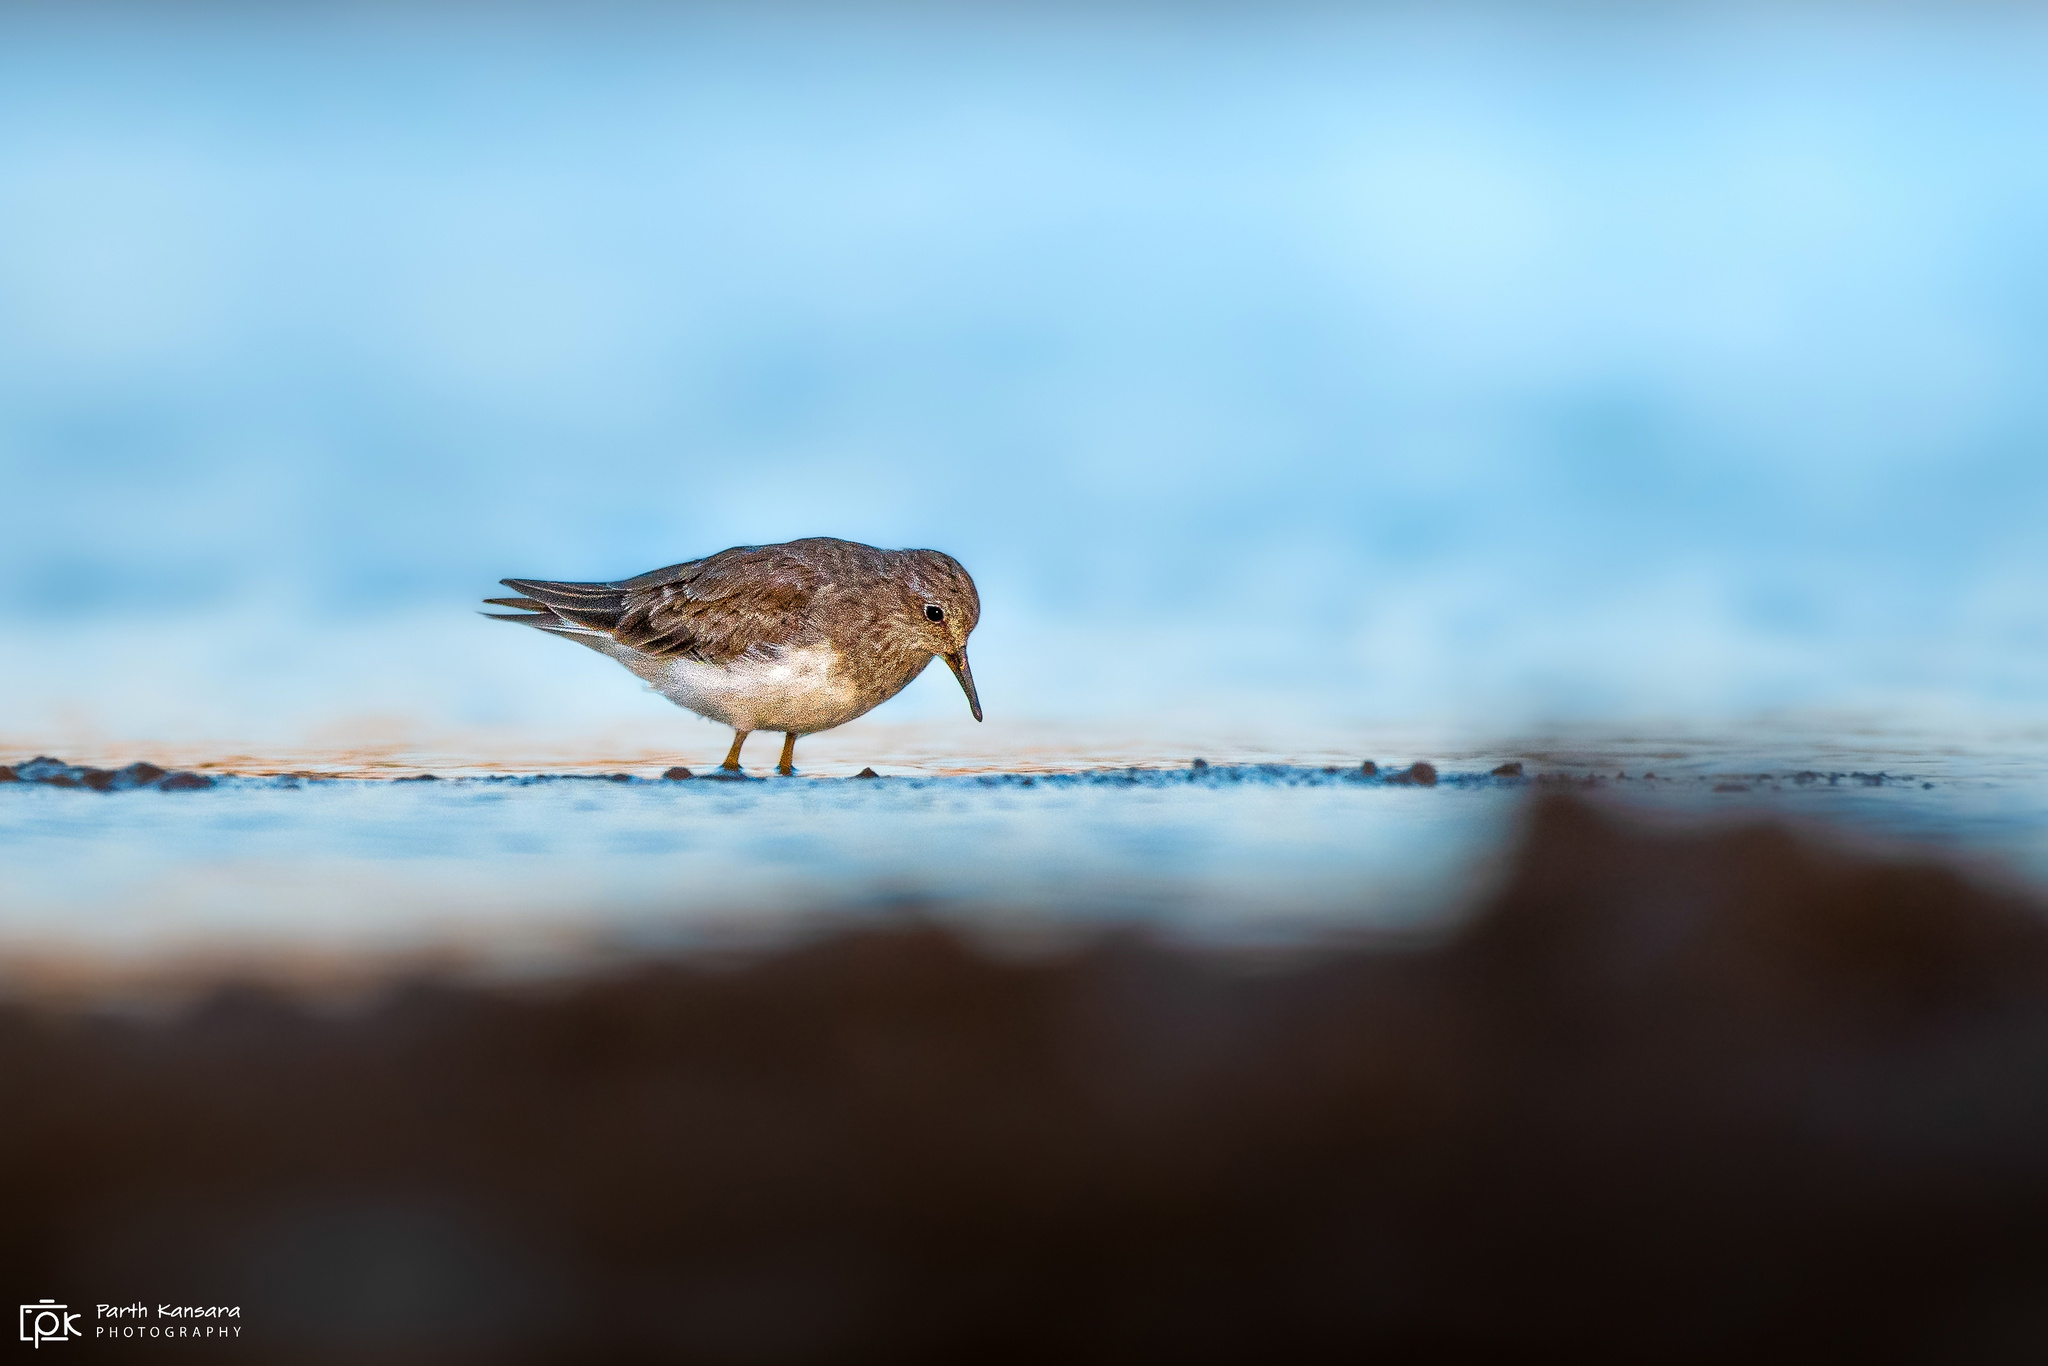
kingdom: Animalia
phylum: Chordata
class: Aves
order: Charadriiformes
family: Scolopacidae
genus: Calidris
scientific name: Calidris temminckii
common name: Temminck's stint
